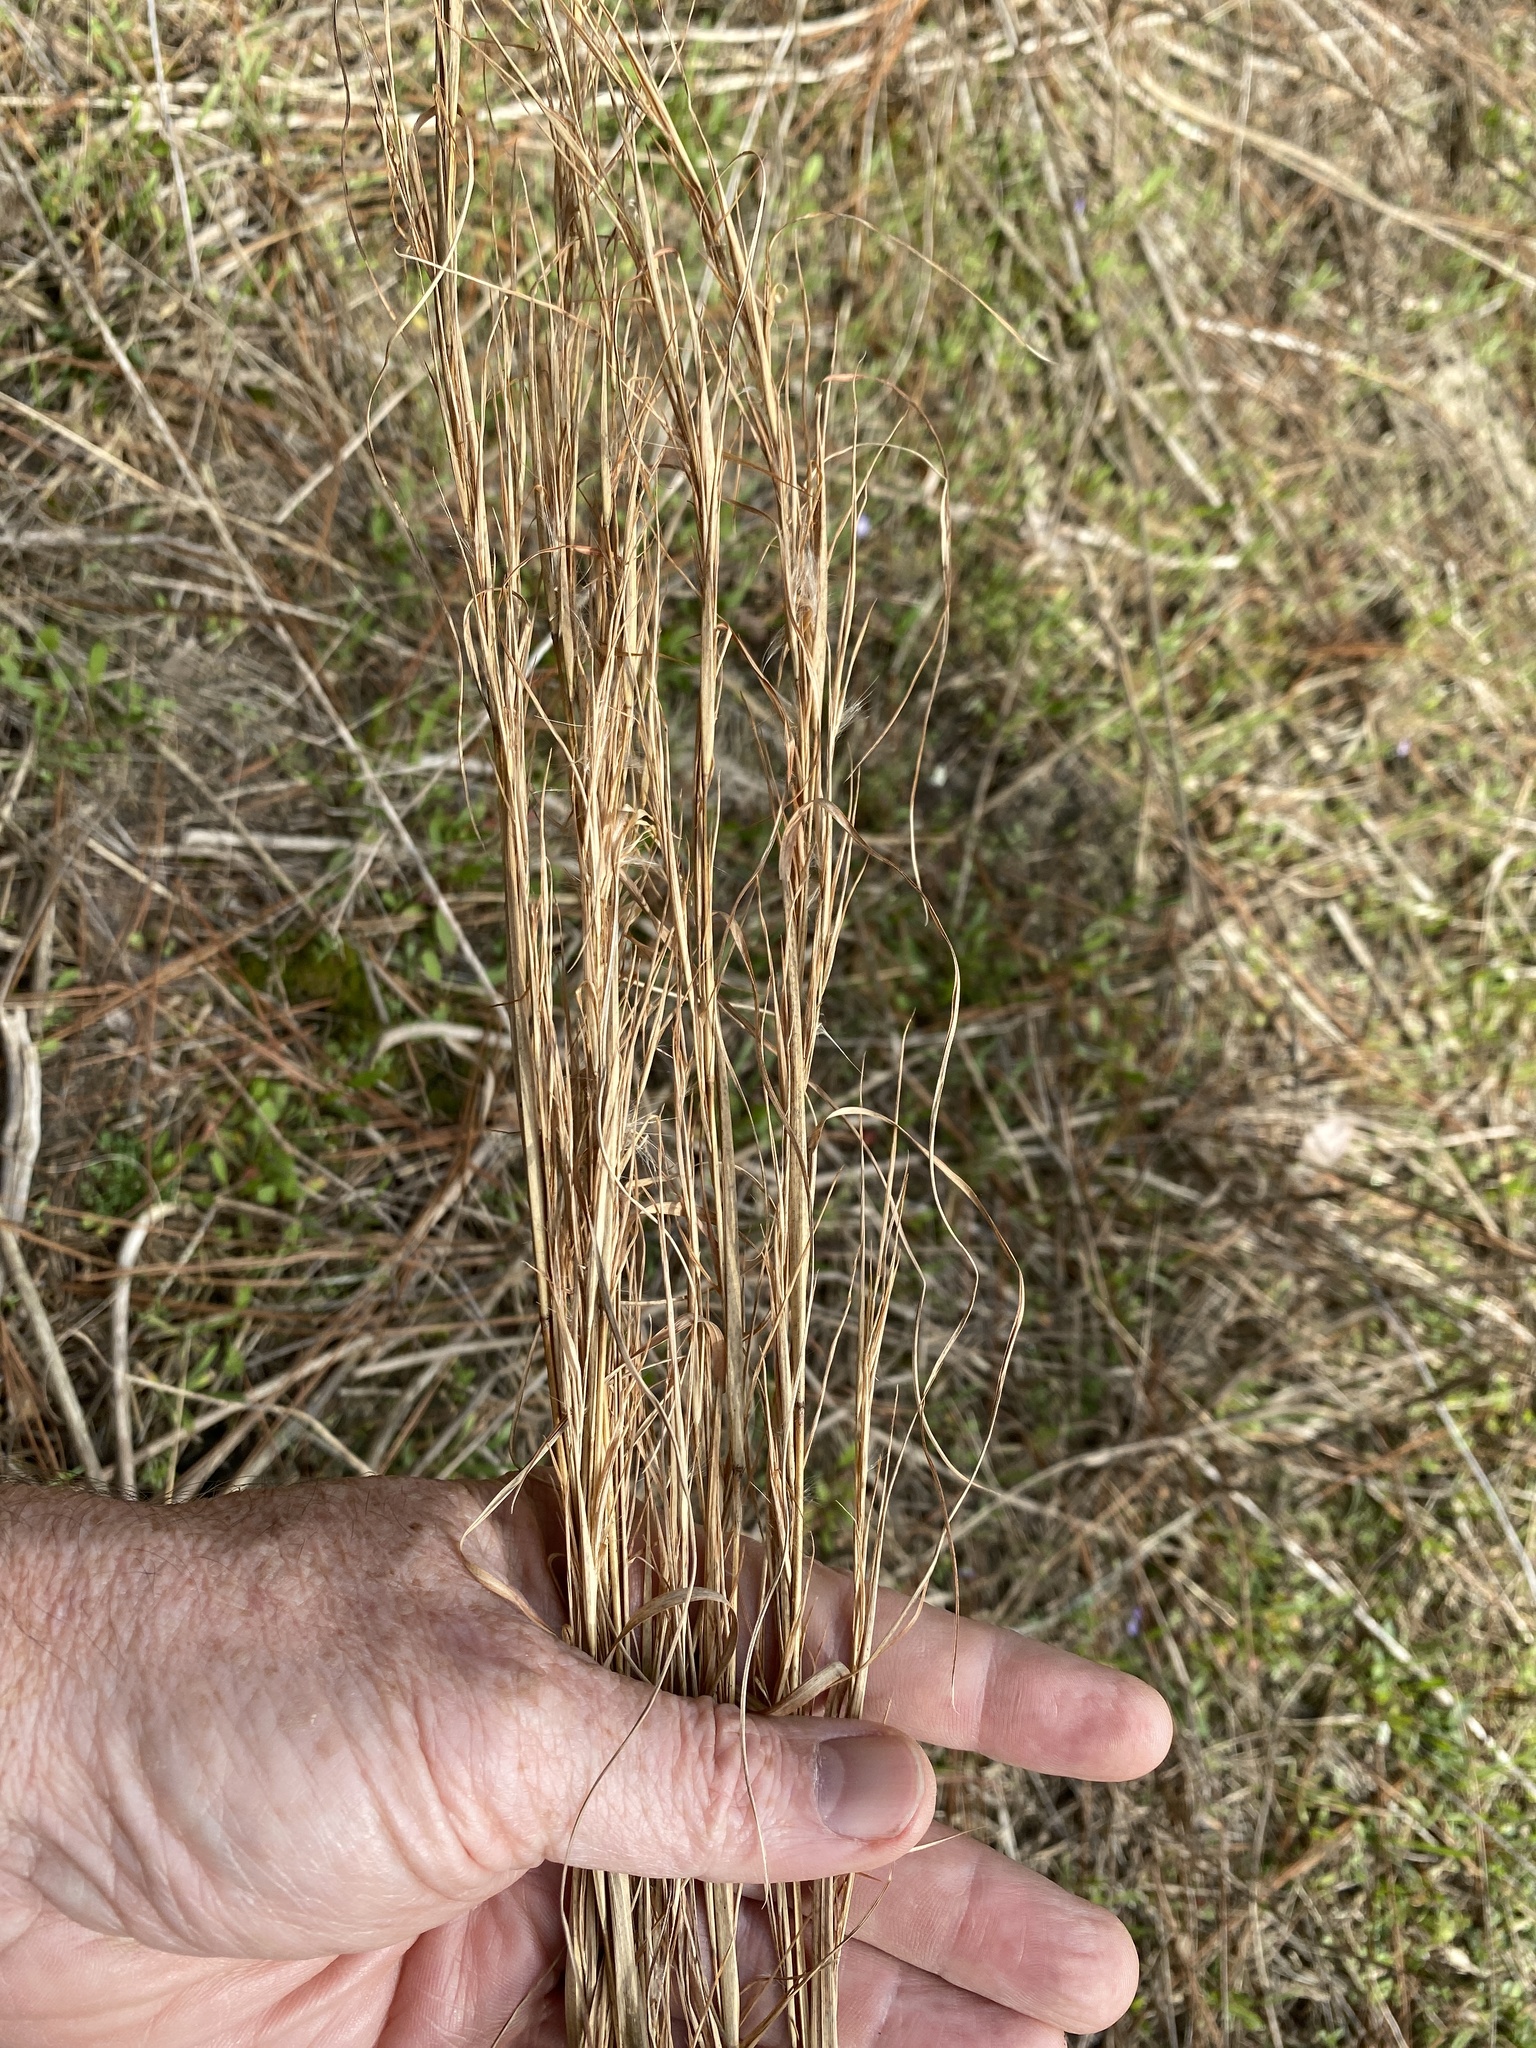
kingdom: Plantae
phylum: Tracheophyta
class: Liliopsida
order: Poales
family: Poaceae
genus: Andropogon
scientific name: Andropogon virginicus
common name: Broomsedge bluestem
